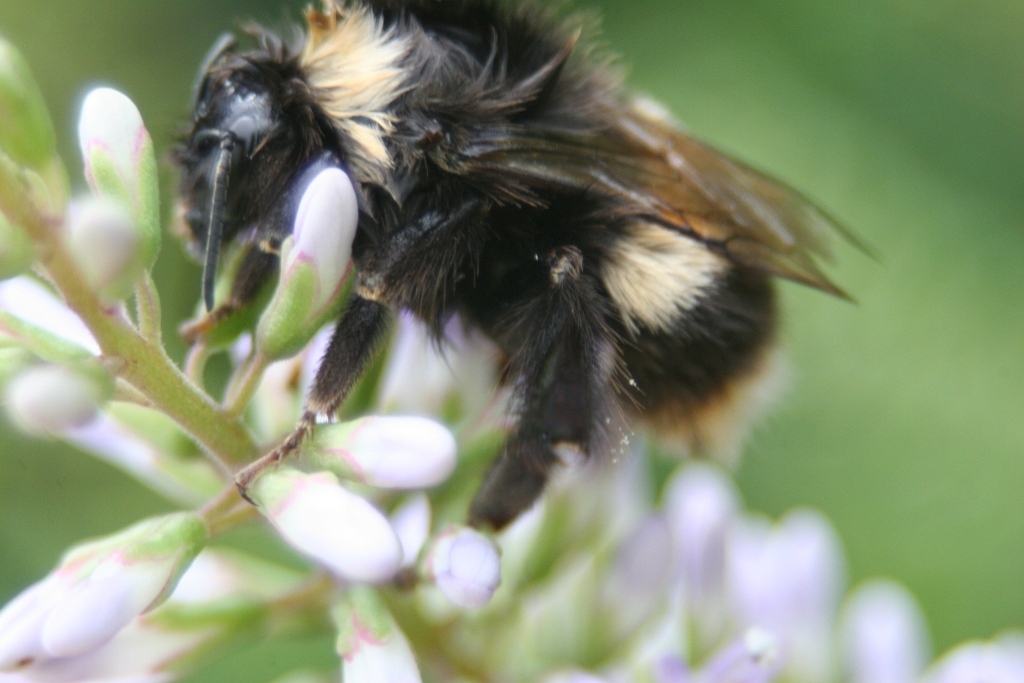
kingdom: Animalia
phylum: Arthropoda
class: Insecta
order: Hymenoptera
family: Apidae
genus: Bombus
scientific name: Bombus terrestris
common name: Buff-tailed bumblebee
